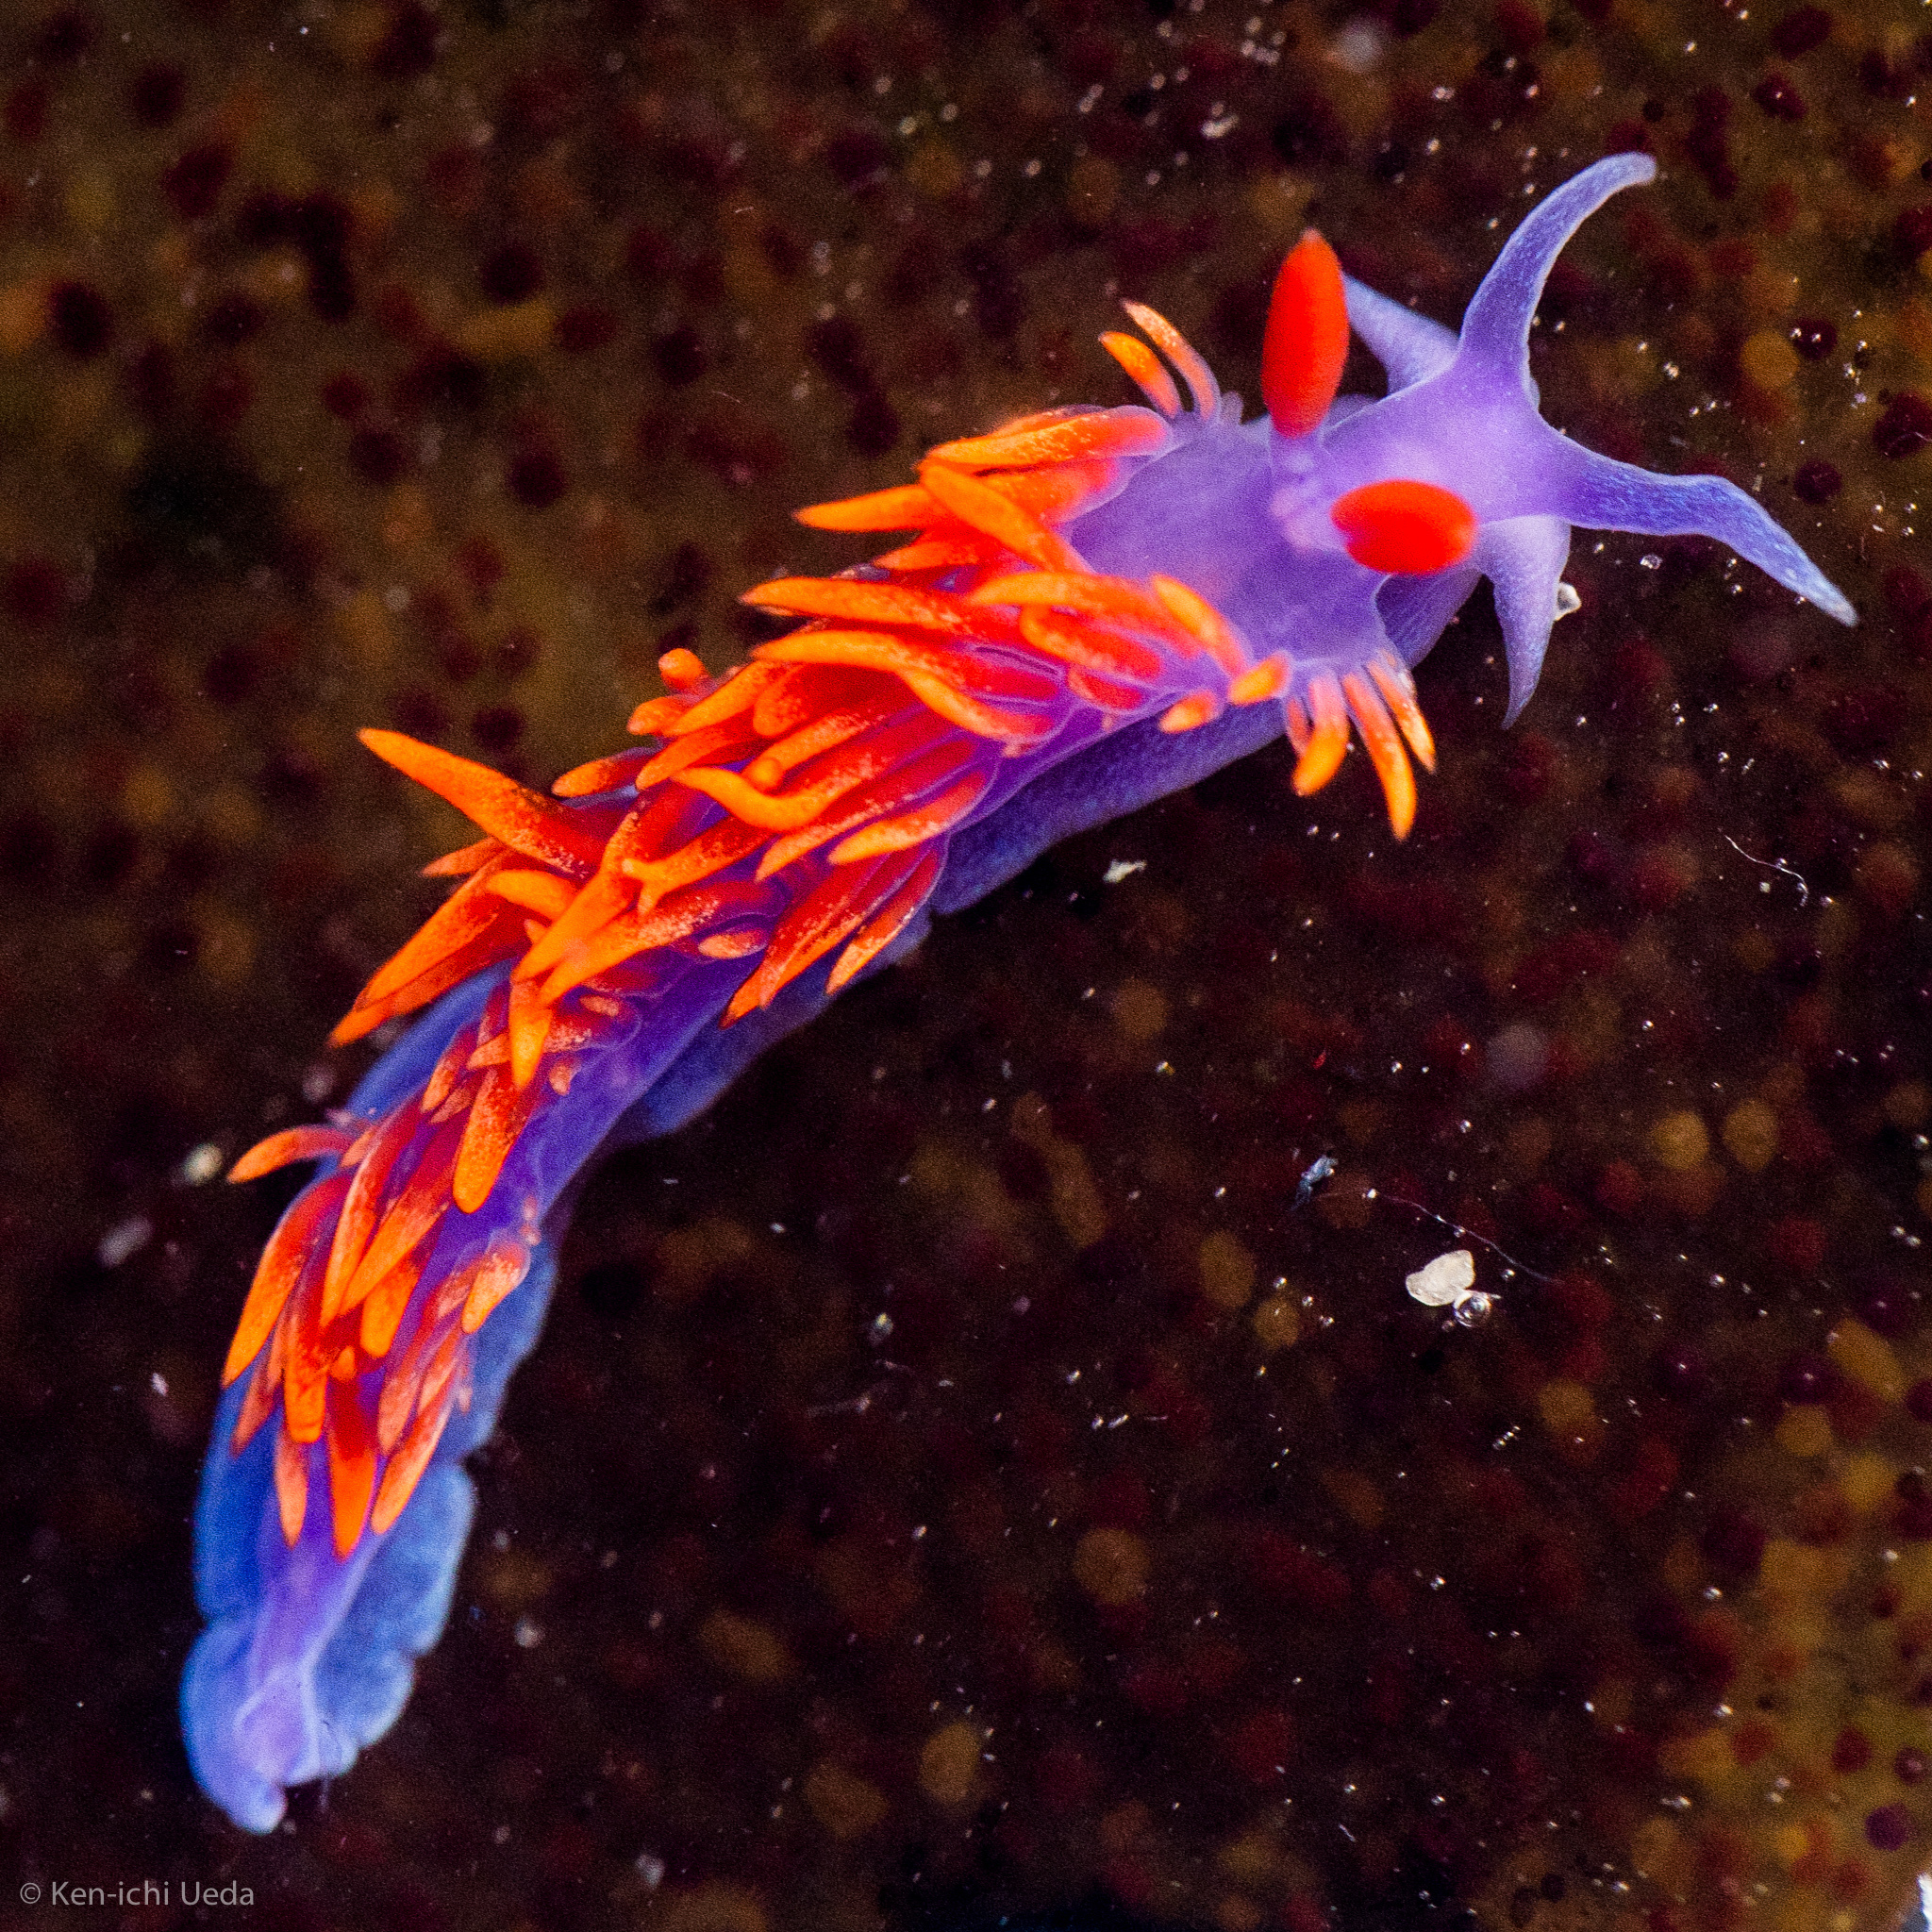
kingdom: Animalia
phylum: Mollusca
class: Gastropoda
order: Nudibranchia
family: Flabellinopsidae
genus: Flabellinopsis
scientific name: Flabellinopsis iodinea
